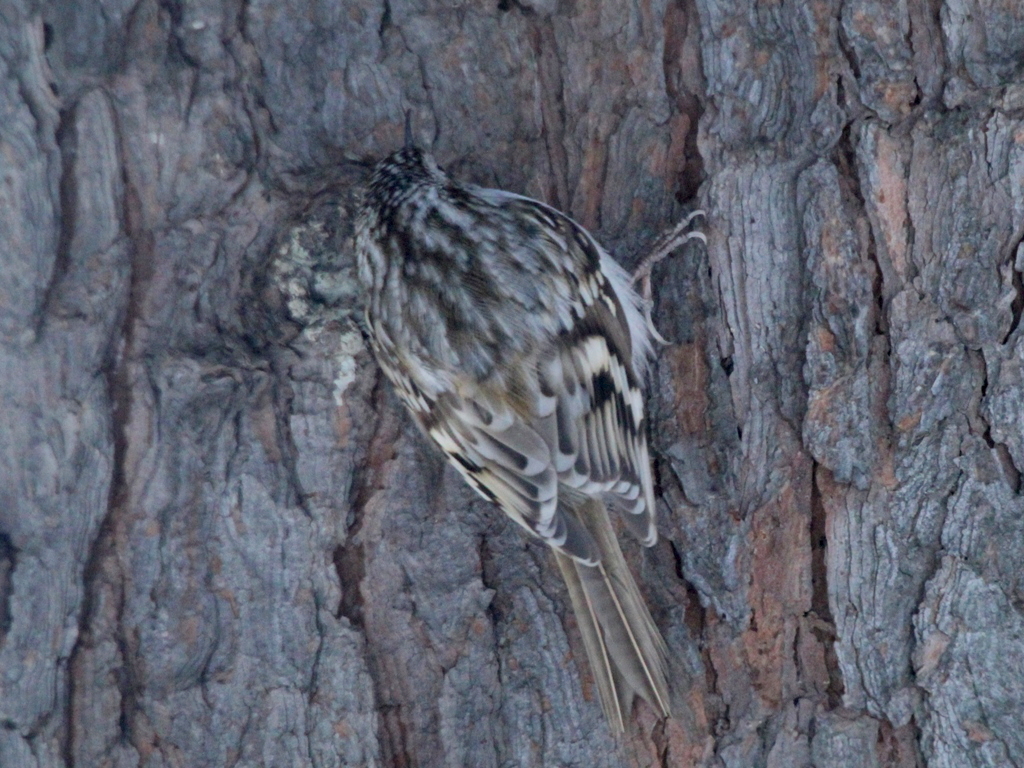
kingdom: Animalia
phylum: Chordata
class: Aves
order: Passeriformes
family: Certhiidae
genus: Certhia
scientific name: Certhia familiaris
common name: Eurasian treecreeper
